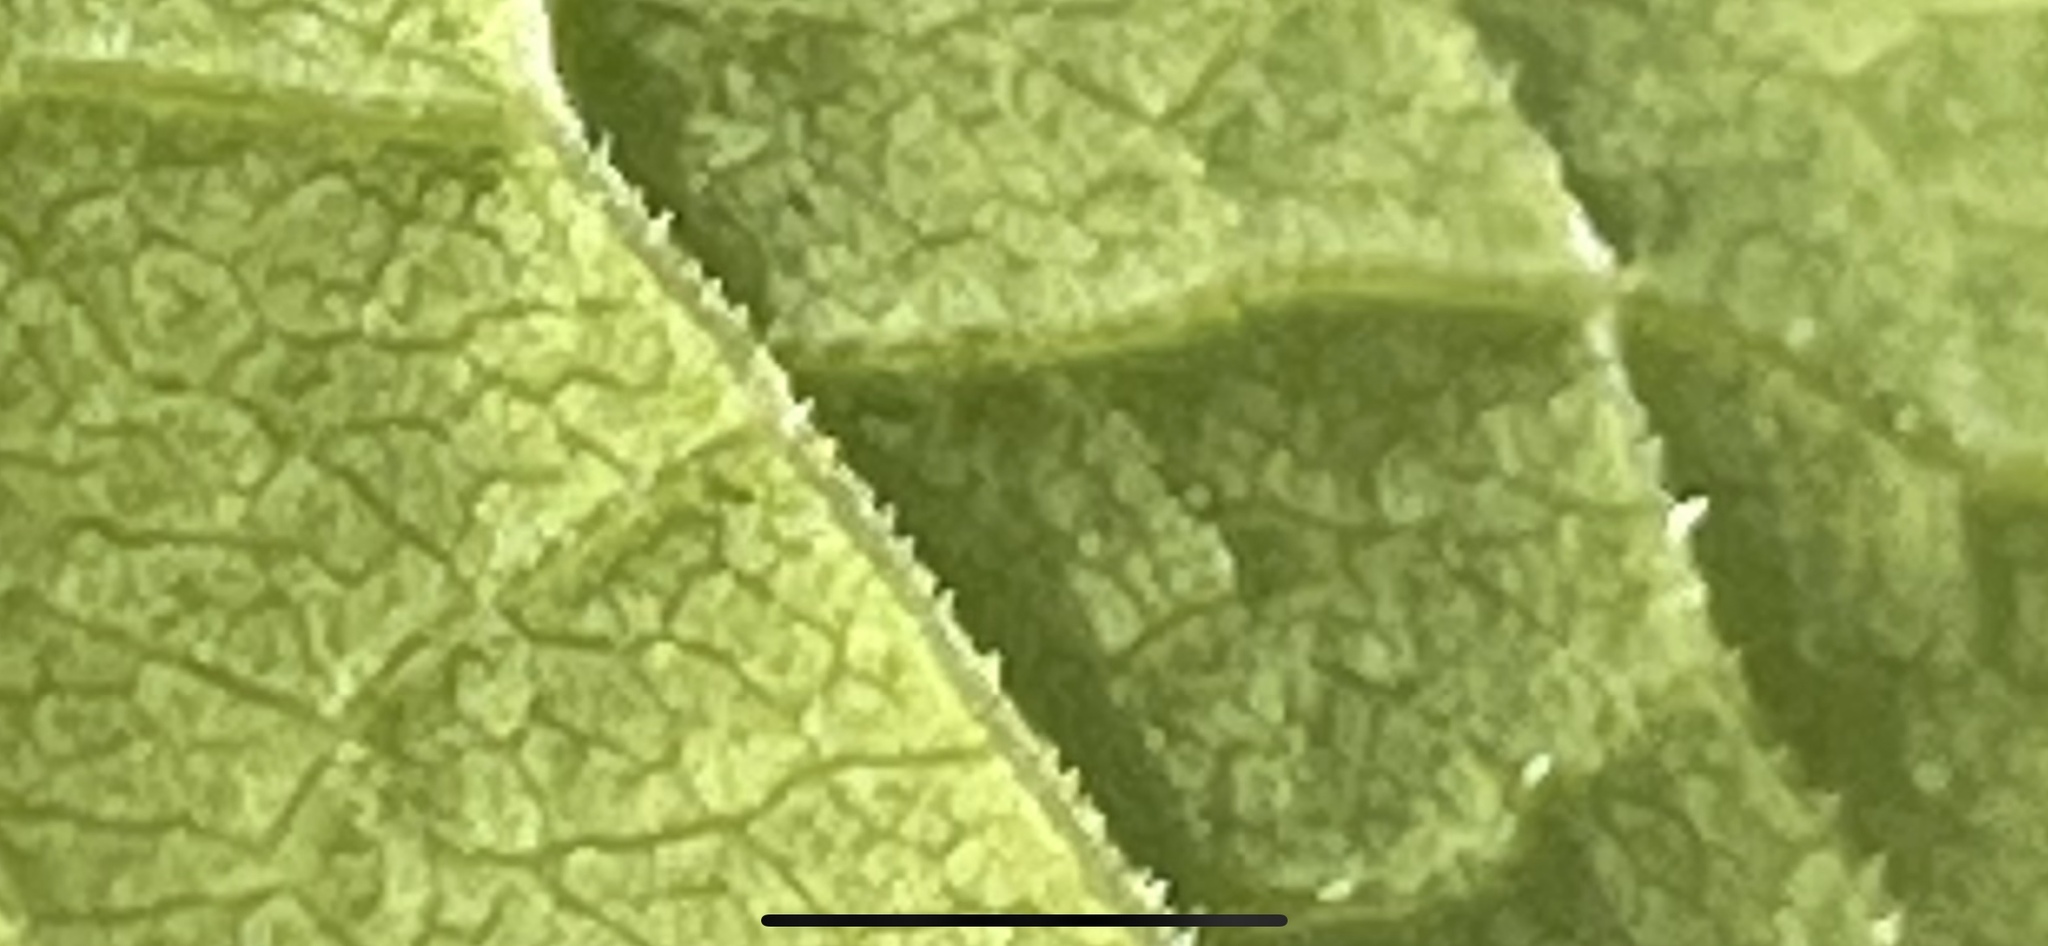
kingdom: Plantae
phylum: Tracheophyta
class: Magnoliopsida
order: Caryophyllales
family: Polygonaceae
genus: Reynoutria
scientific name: Reynoutria bohemica
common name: Bohemian knotweed
